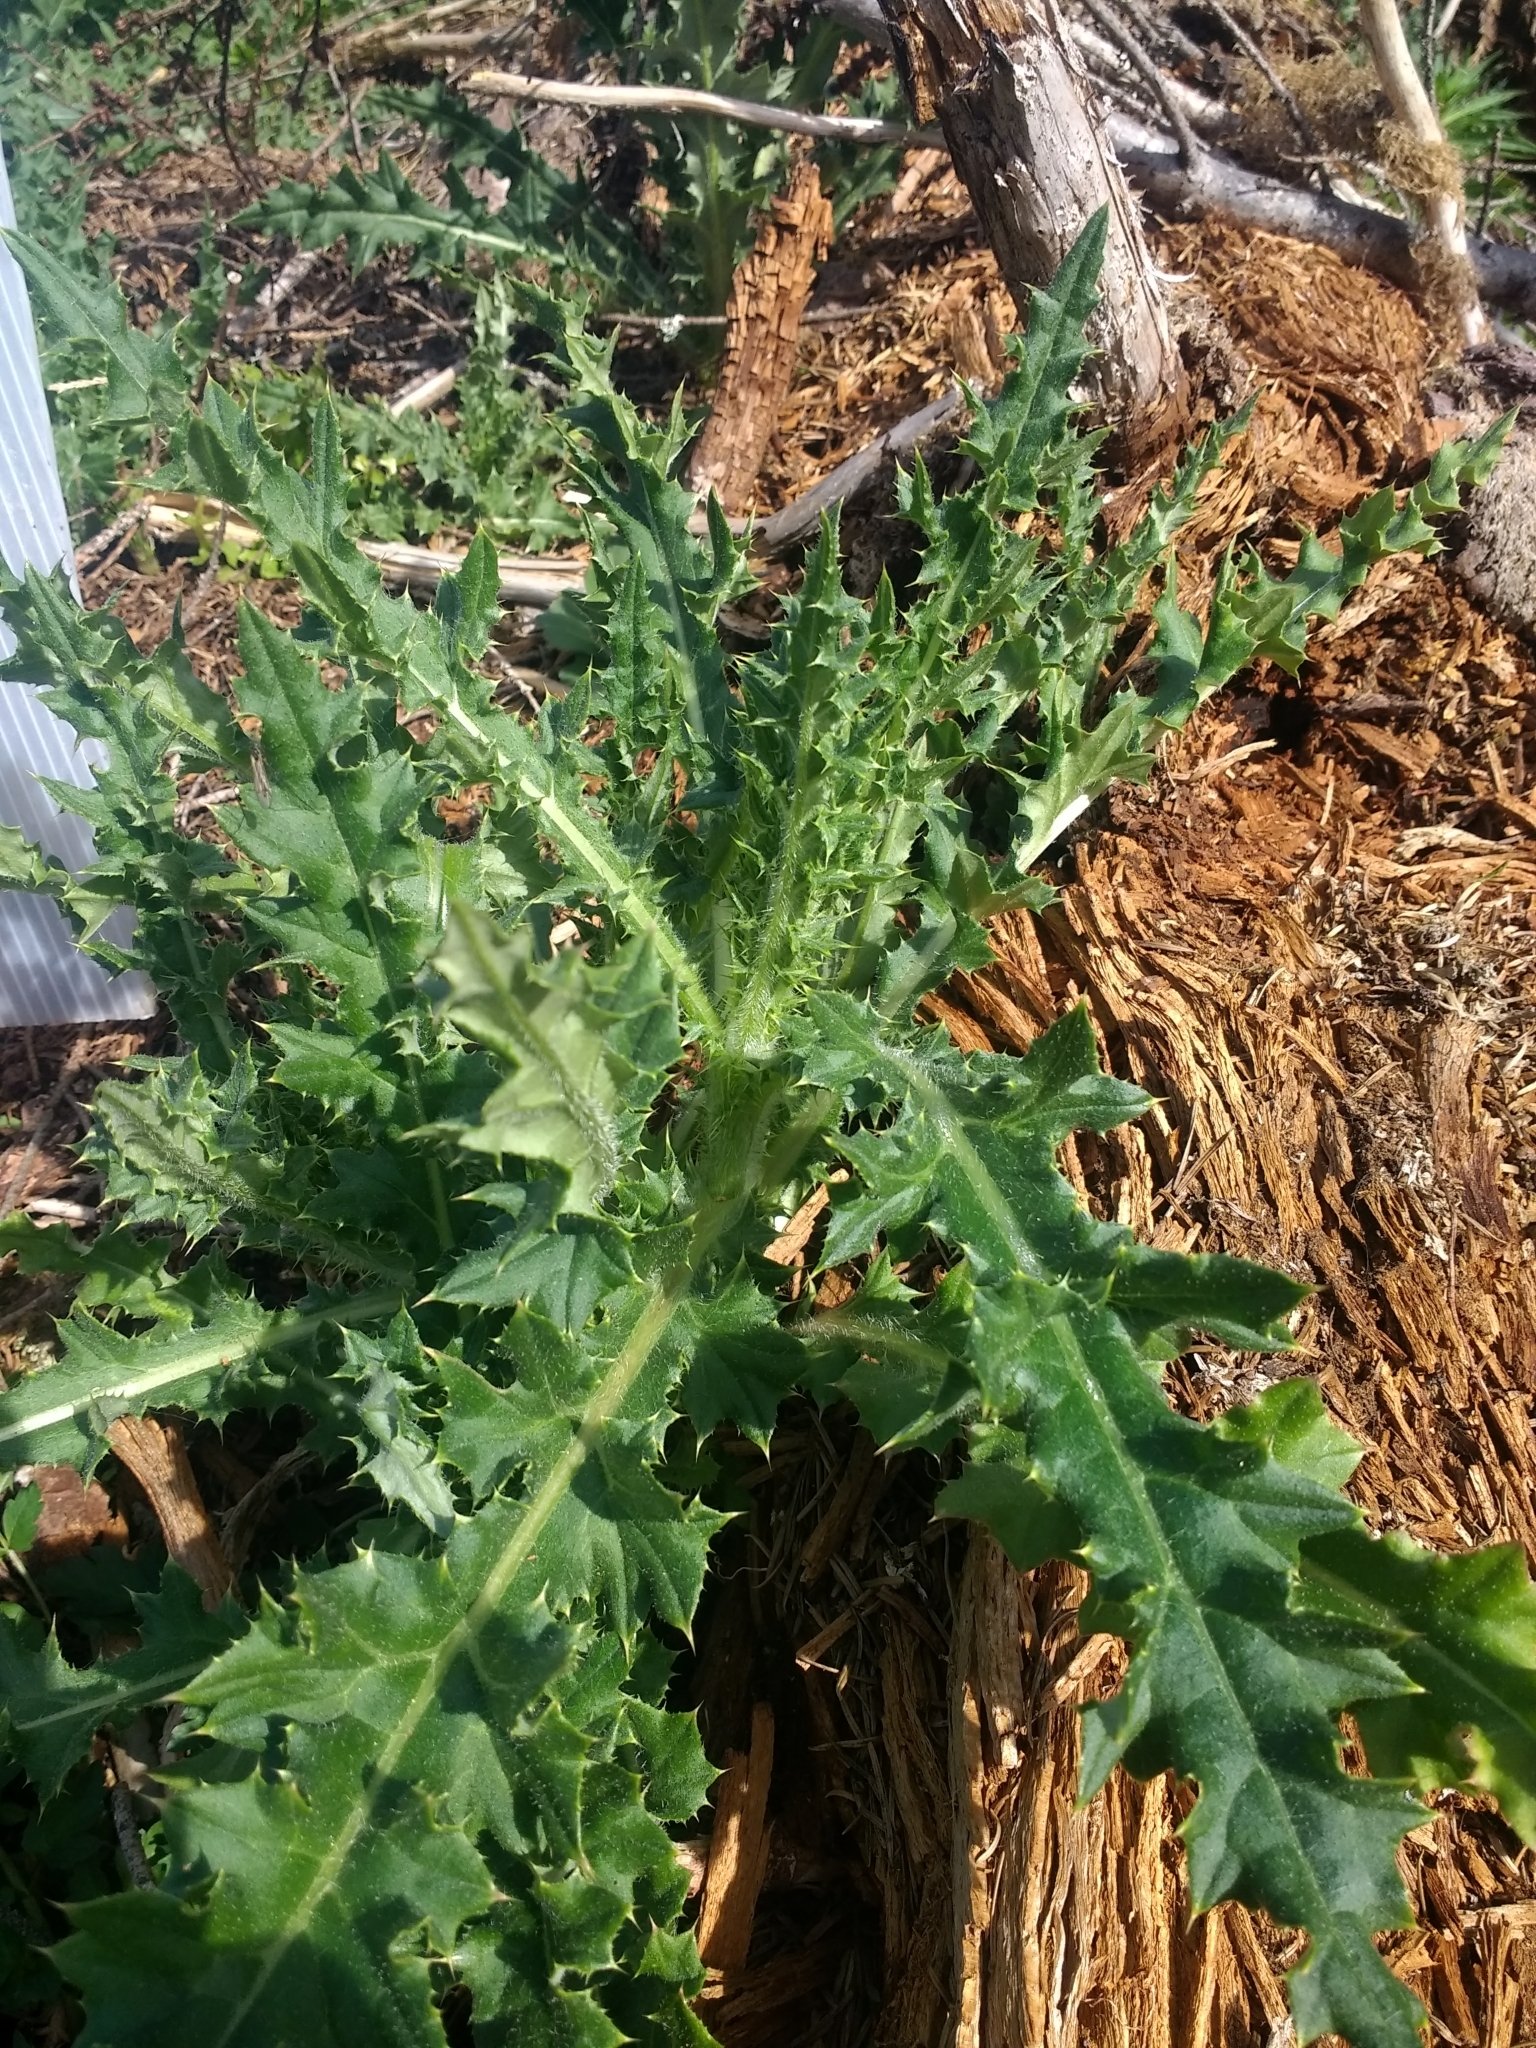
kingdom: Plantae
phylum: Tracheophyta
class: Magnoliopsida
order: Asterales
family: Asteraceae
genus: Cirsium
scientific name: Cirsium arvense
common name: Creeping thistle
